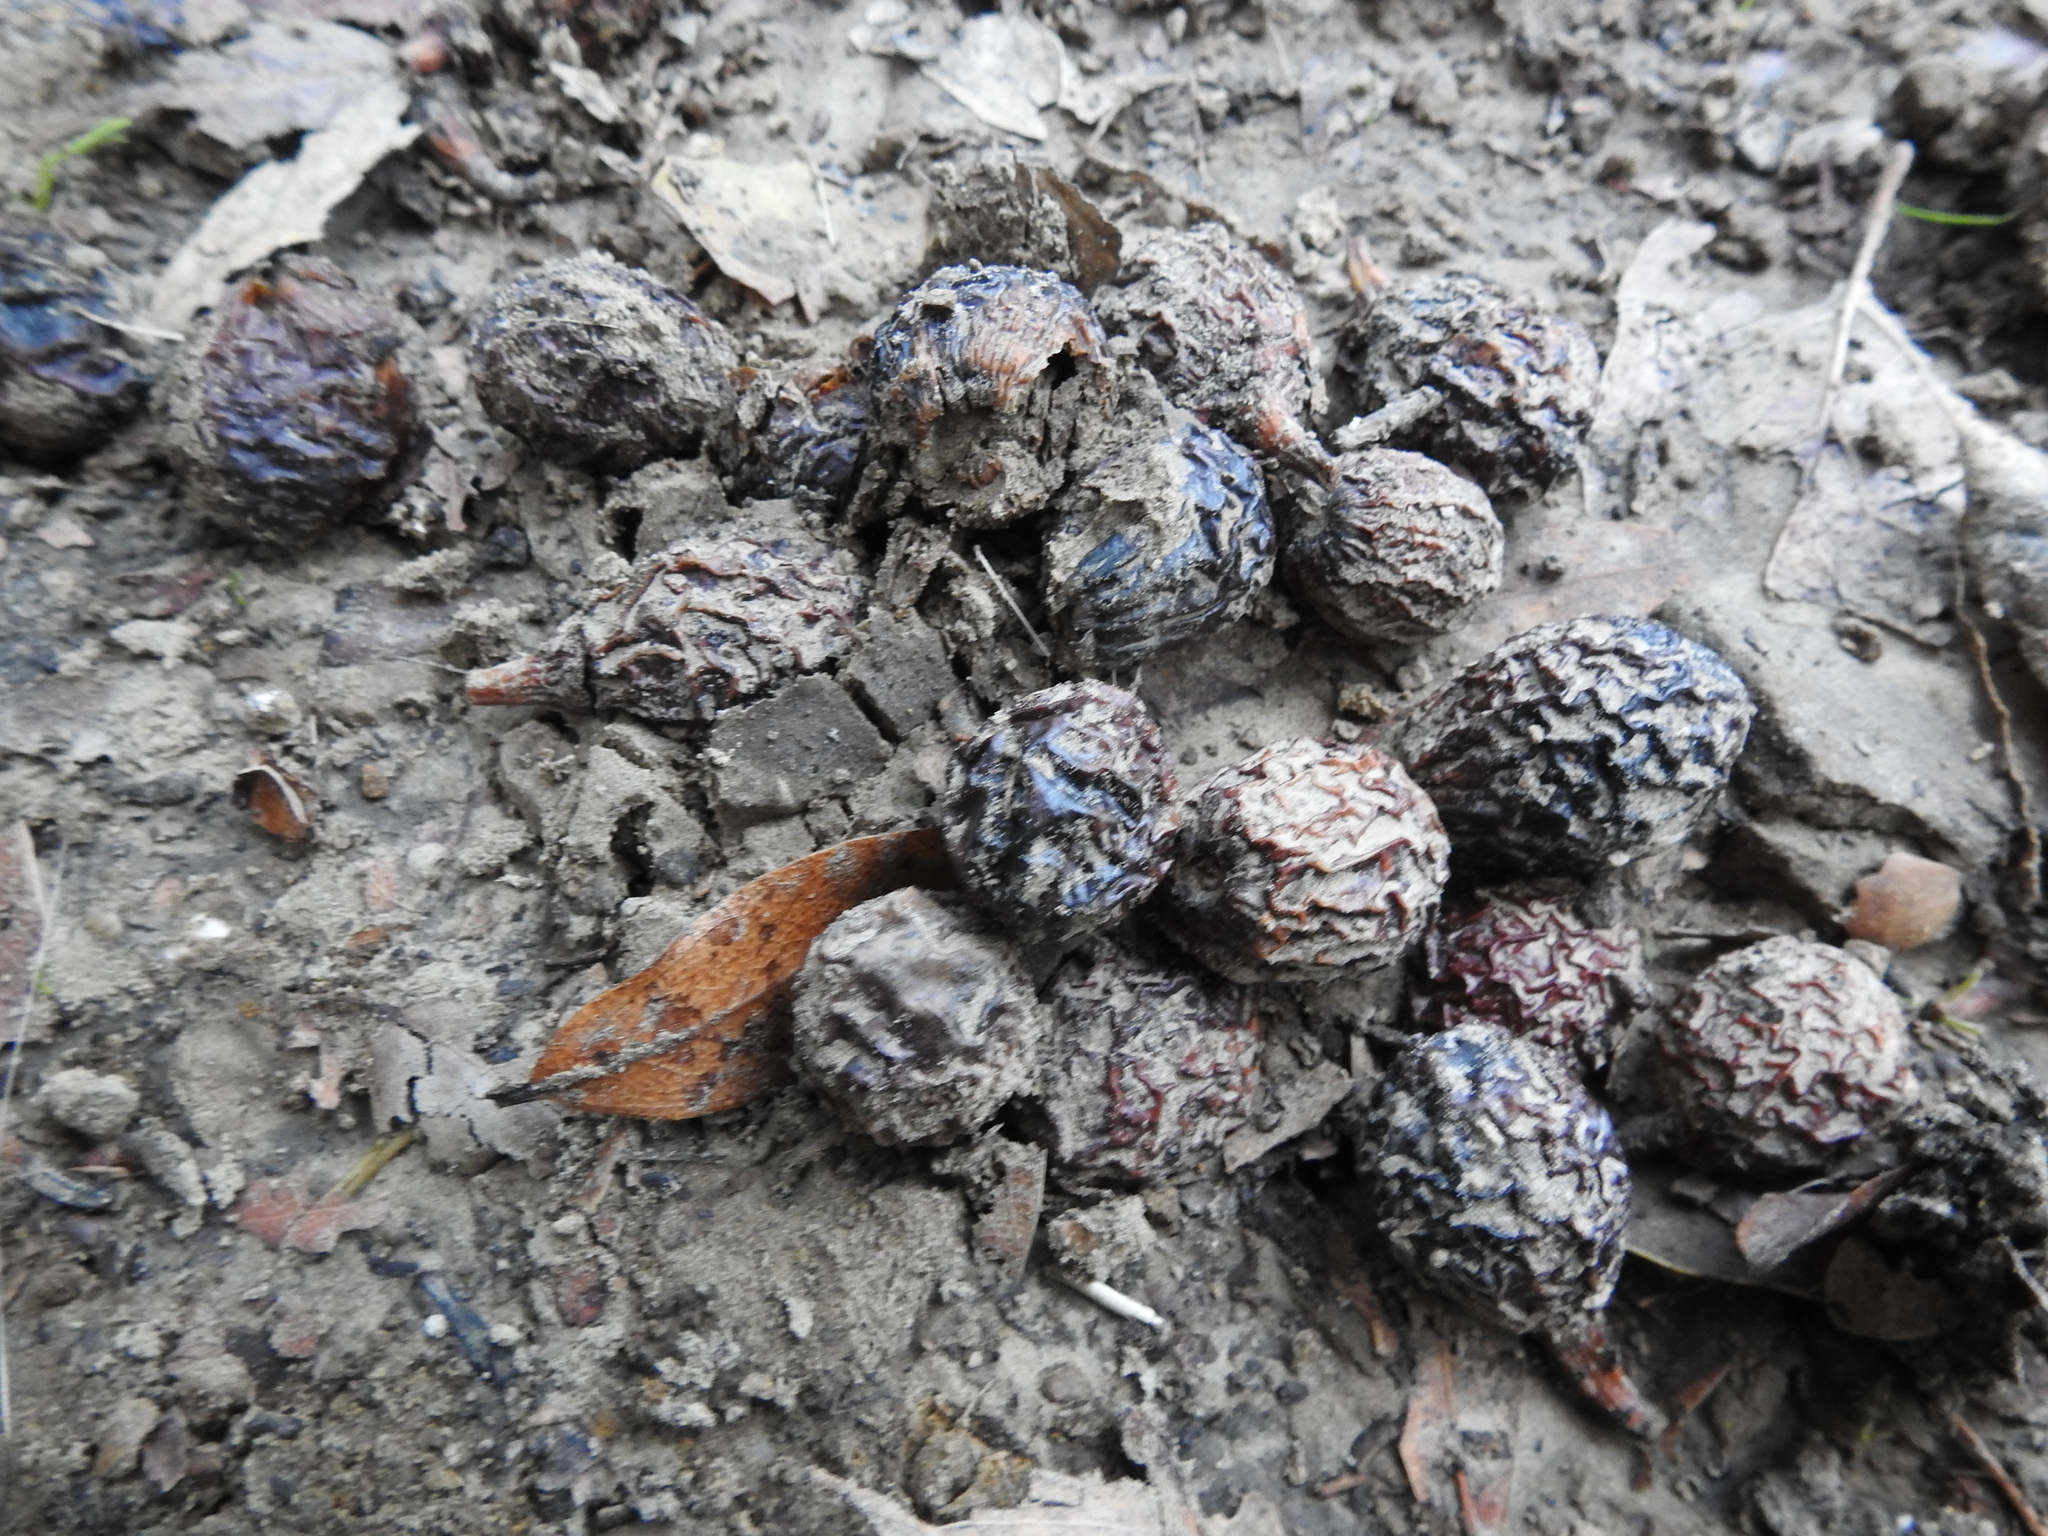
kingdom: Plantae
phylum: Tracheophyta
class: Magnoliopsida
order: Laurales
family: Lauraceae
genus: Umbellularia
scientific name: Umbellularia californica
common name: California bay
